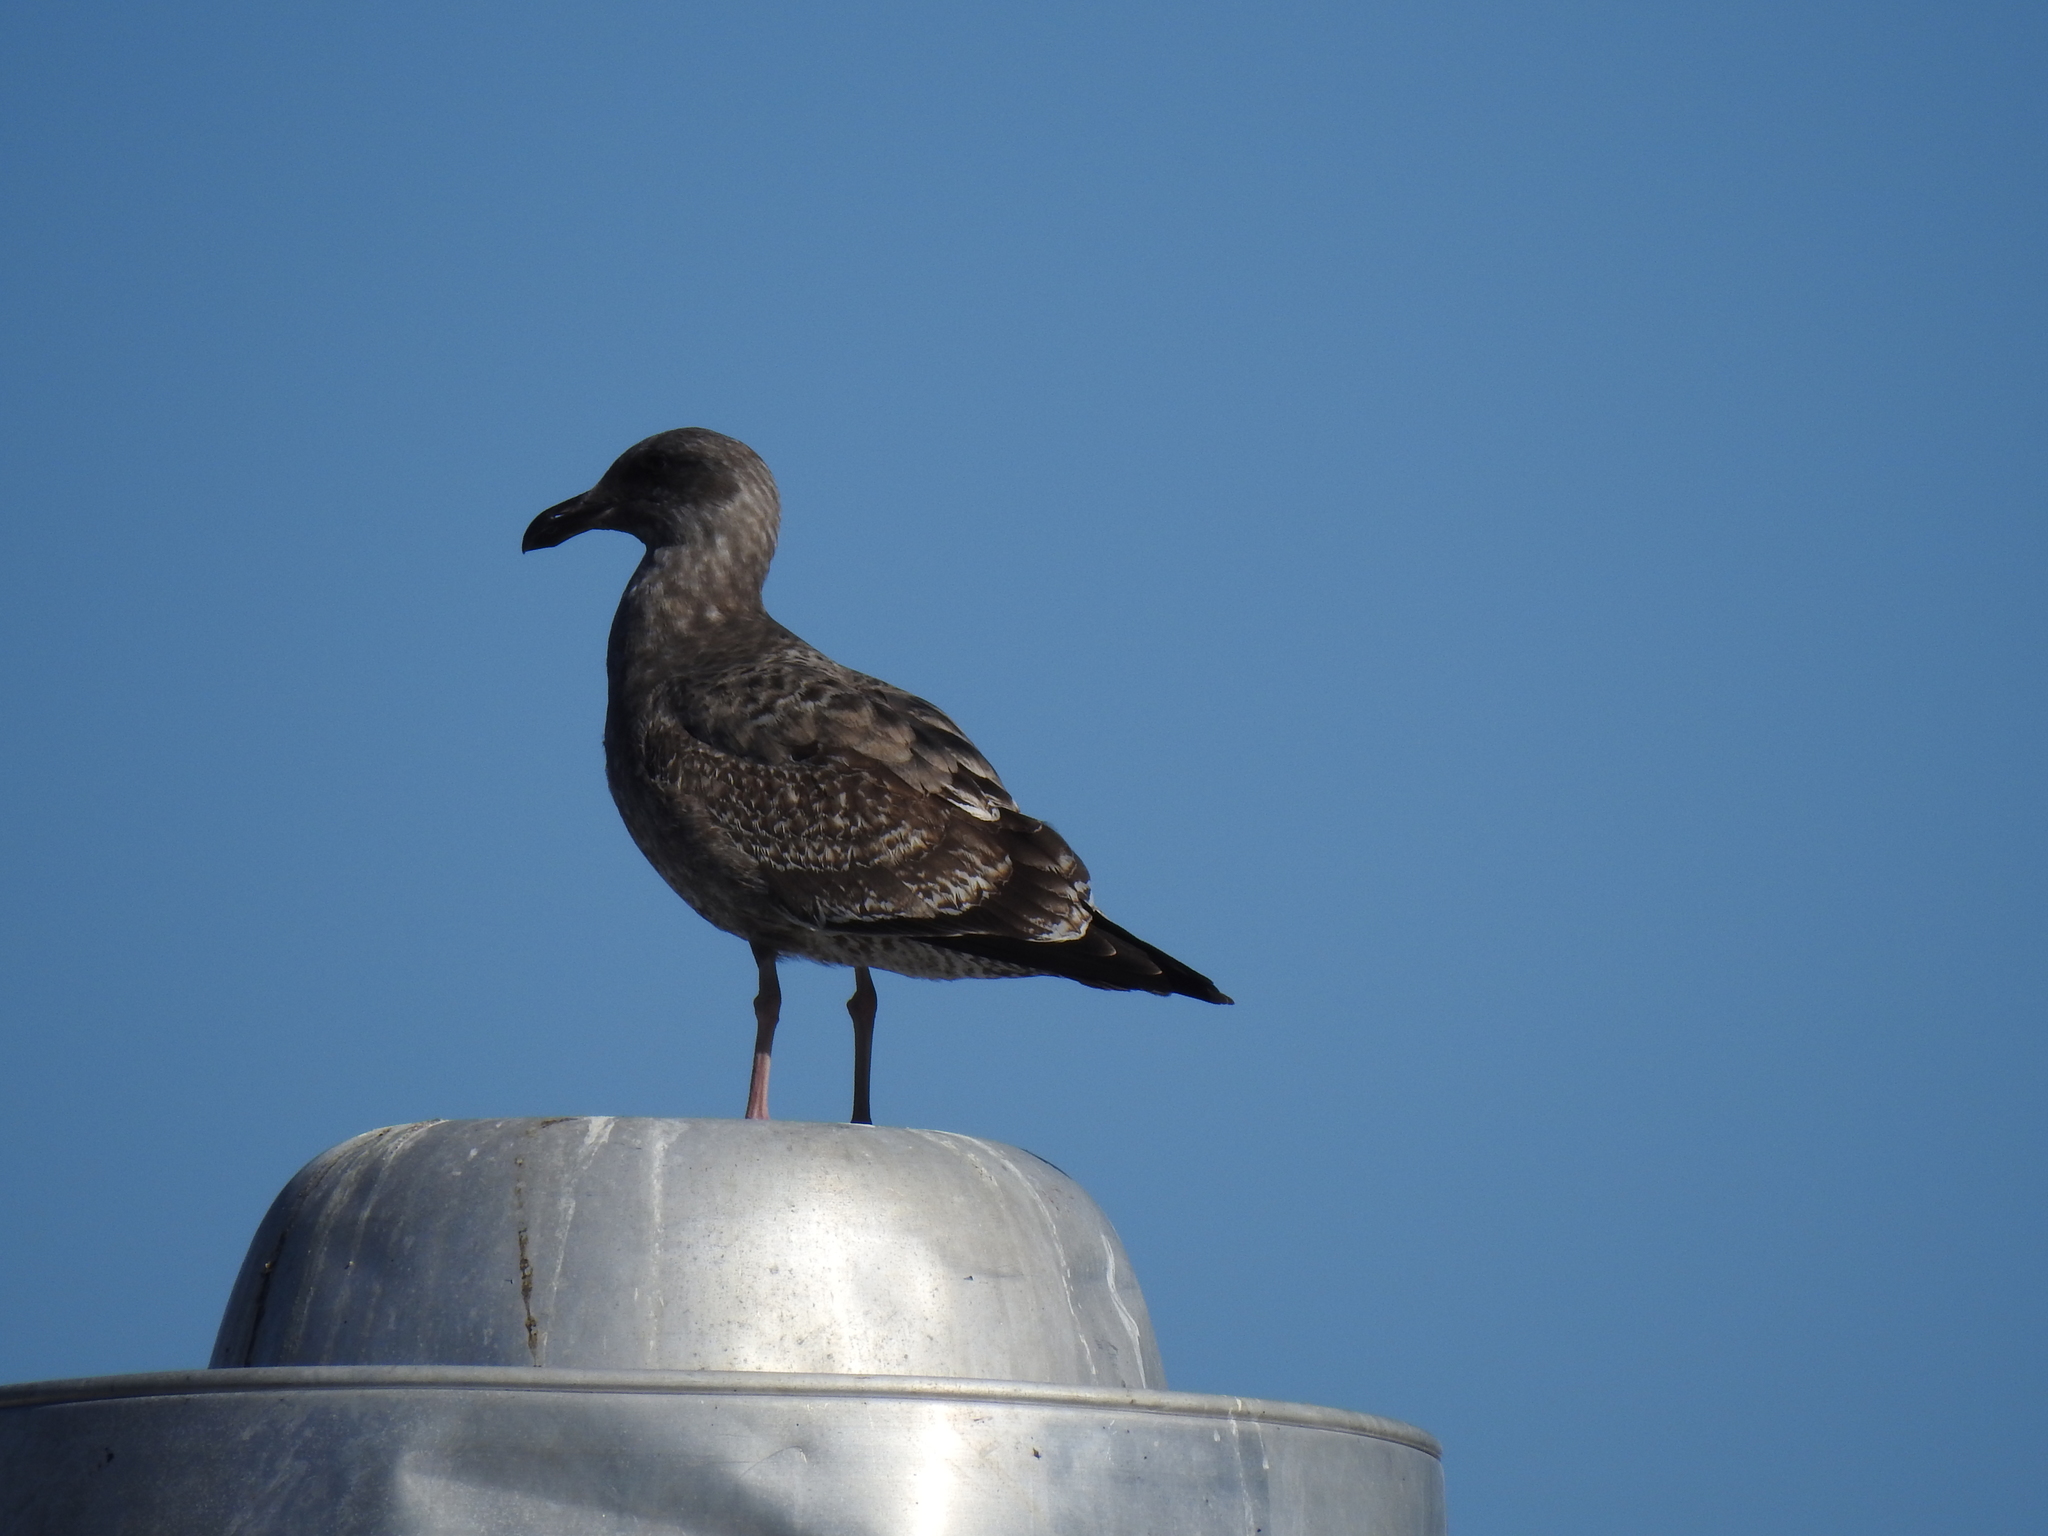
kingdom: Animalia
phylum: Chordata
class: Aves
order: Charadriiformes
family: Laridae
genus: Larus
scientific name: Larus occidentalis
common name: Western gull
